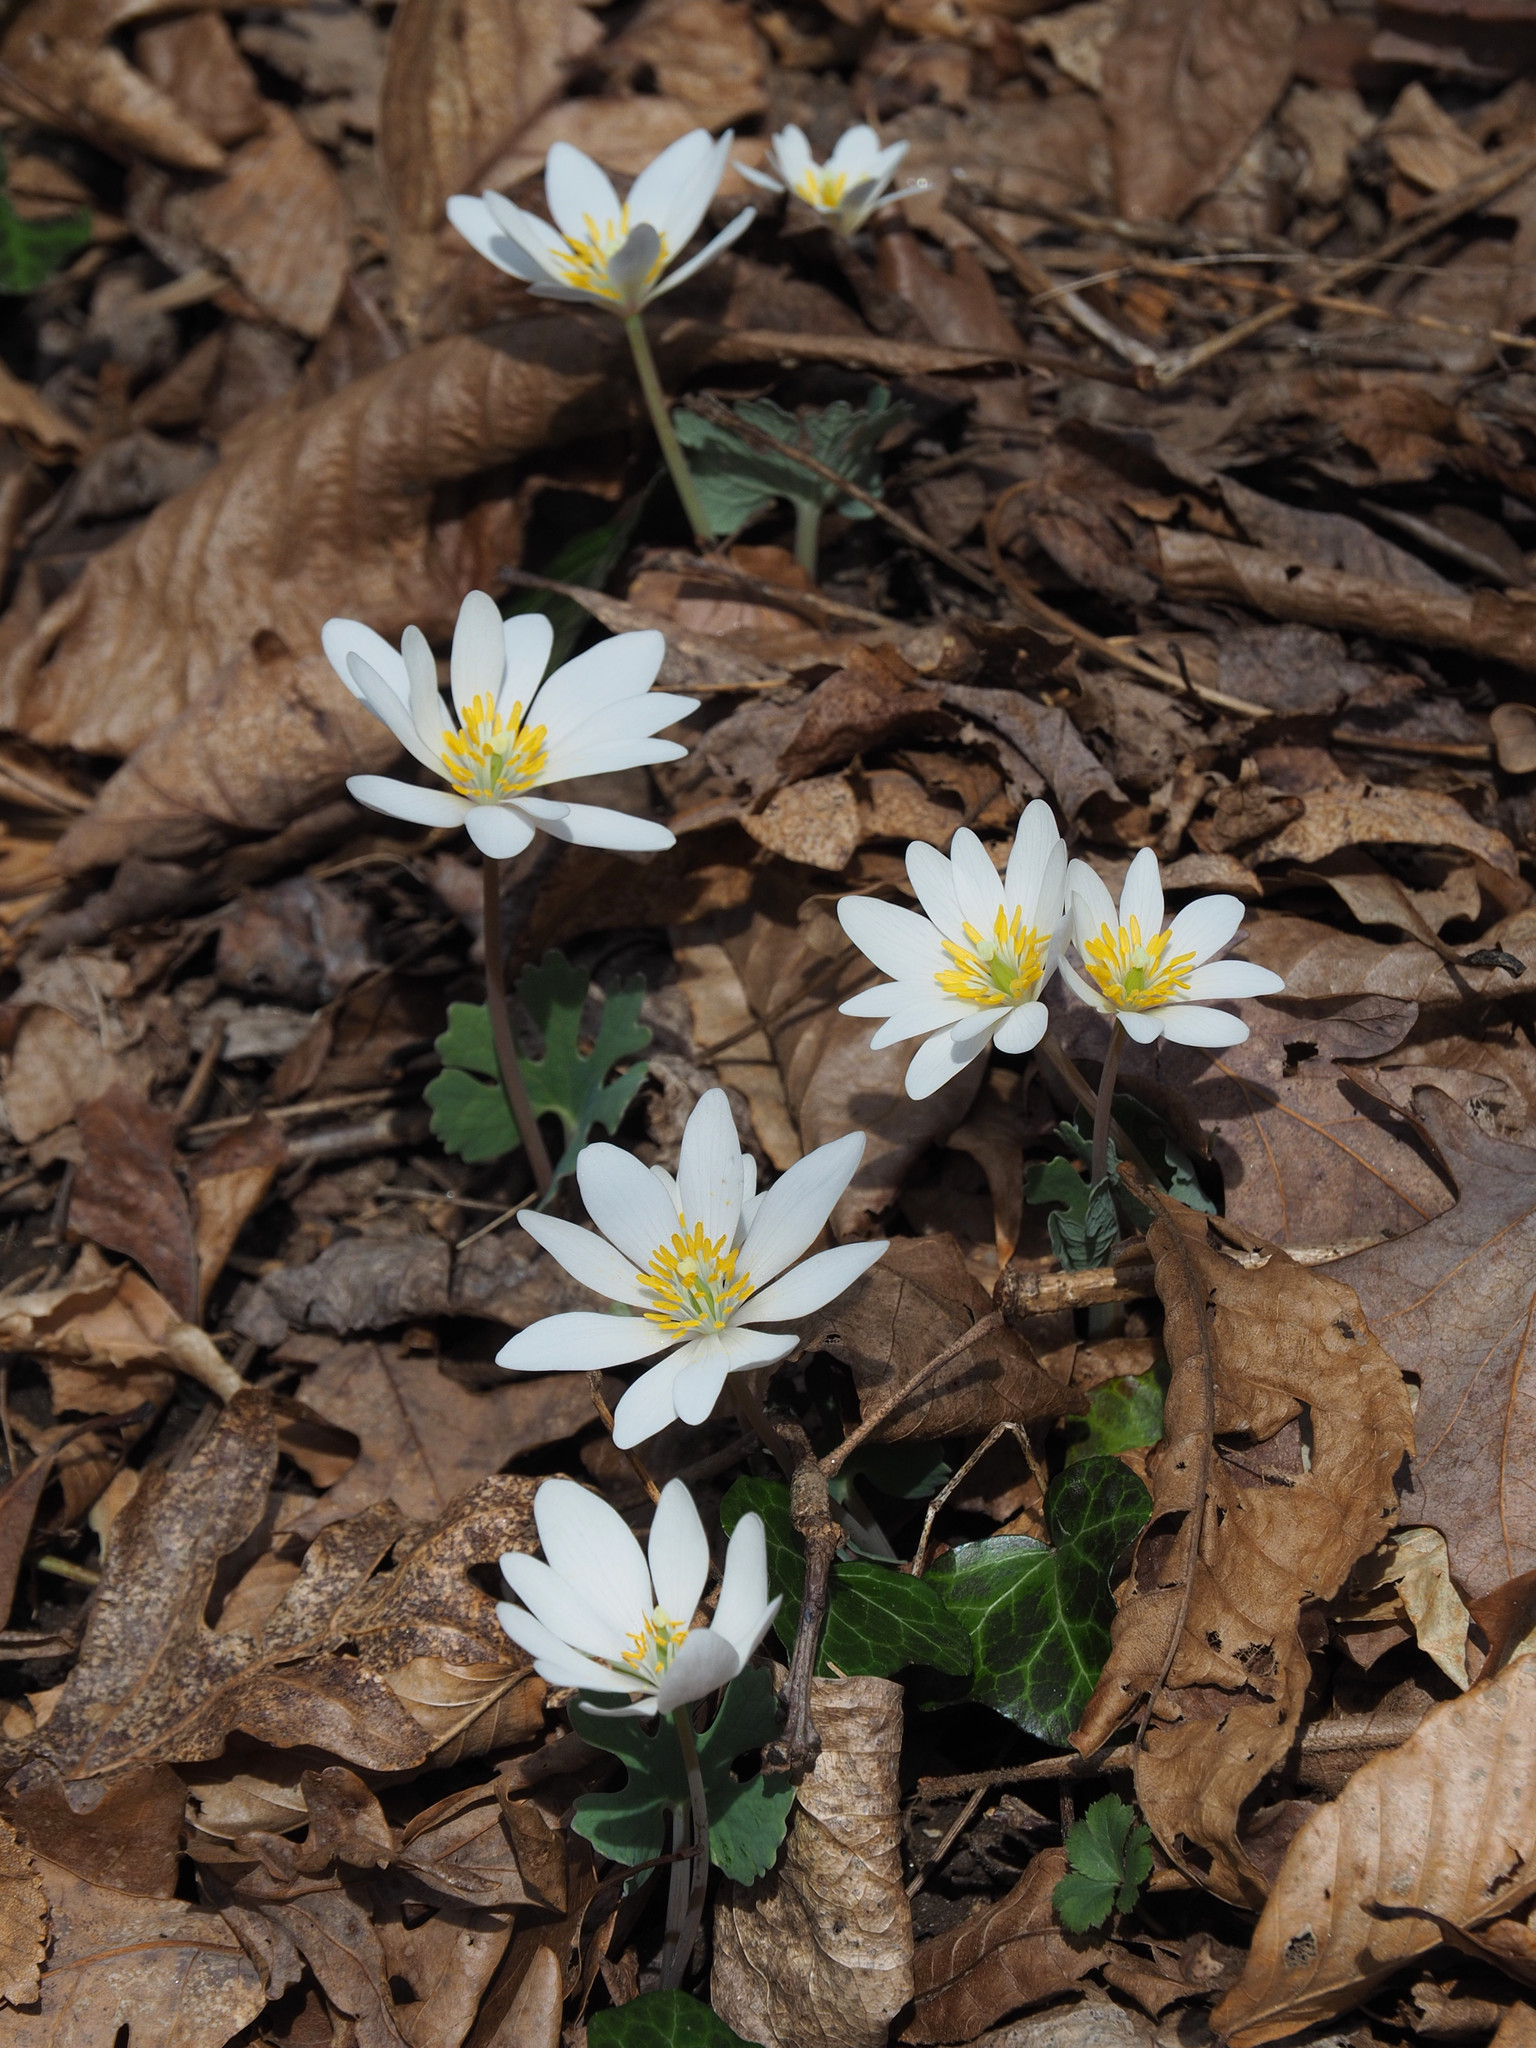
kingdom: Plantae
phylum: Tracheophyta
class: Magnoliopsida
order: Ranunculales
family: Papaveraceae
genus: Sanguinaria
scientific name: Sanguinaria canadensis
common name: Bloodroot
